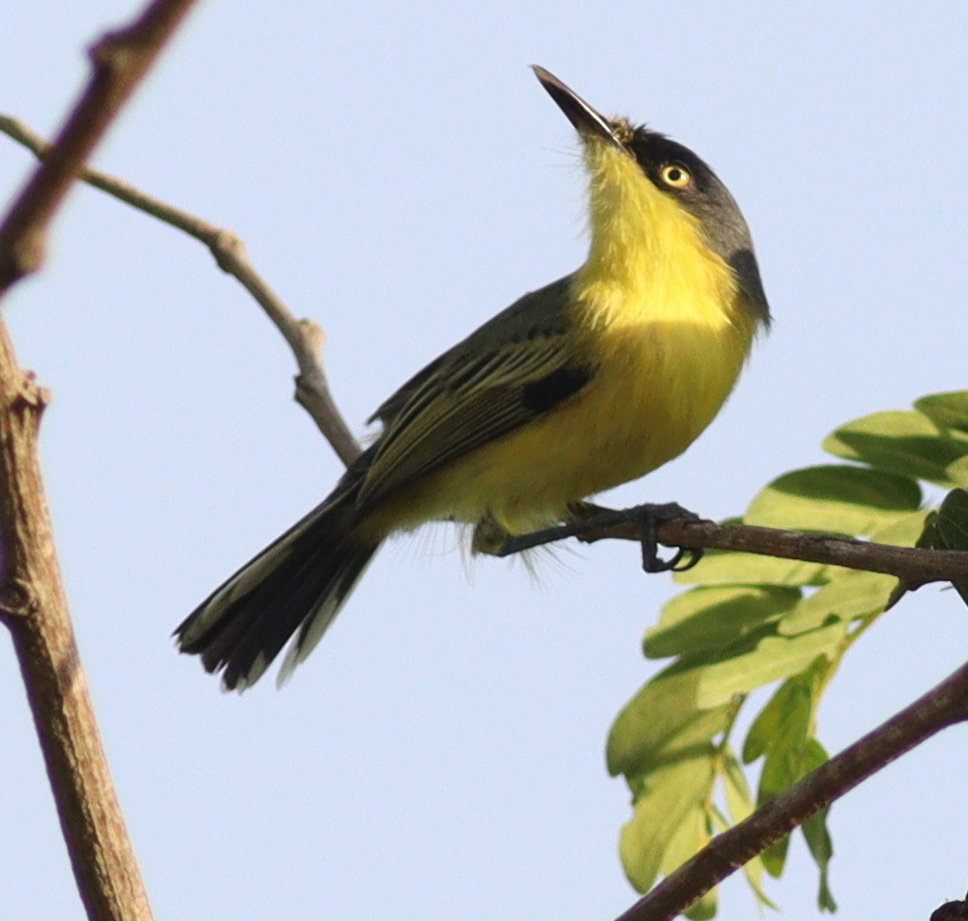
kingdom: Animalia
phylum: Chordata
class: Aves
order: Passeriformes
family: Tyrannidae
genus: Todirostrum
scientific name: Todirostrum cinereum
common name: Common tody-flycatcher
